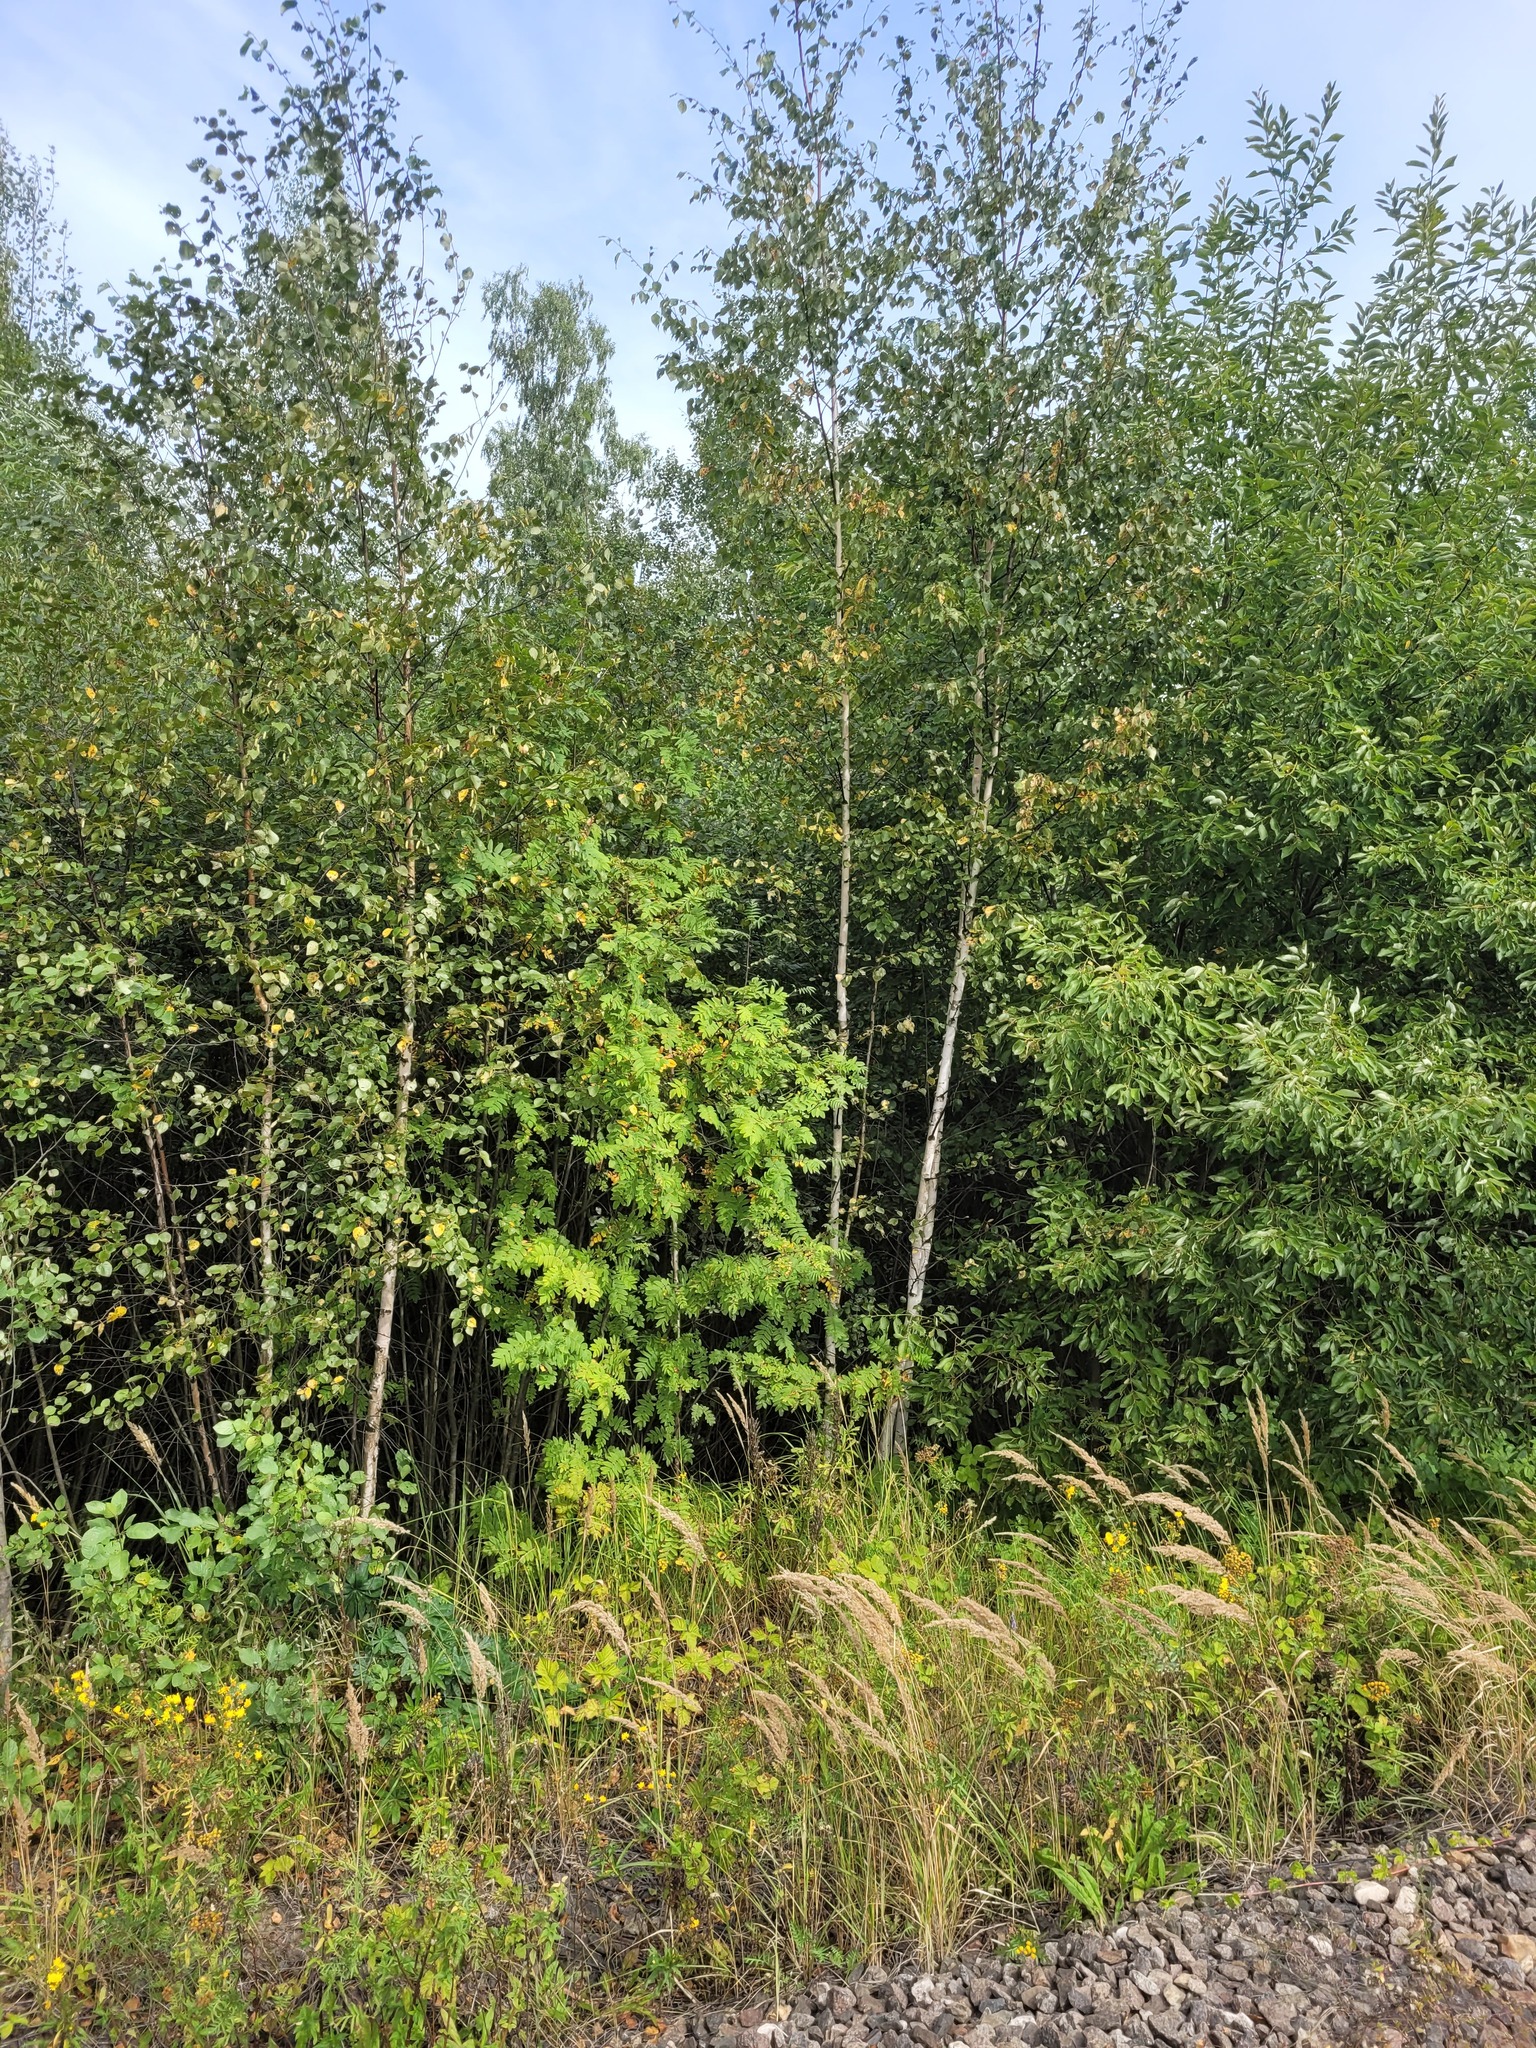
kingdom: Plantae
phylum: Tracheophyta
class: Magnoliopsida
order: Rosales
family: Rosaceae
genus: Sorbus
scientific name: Sorbus aucuparia
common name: Rowan
